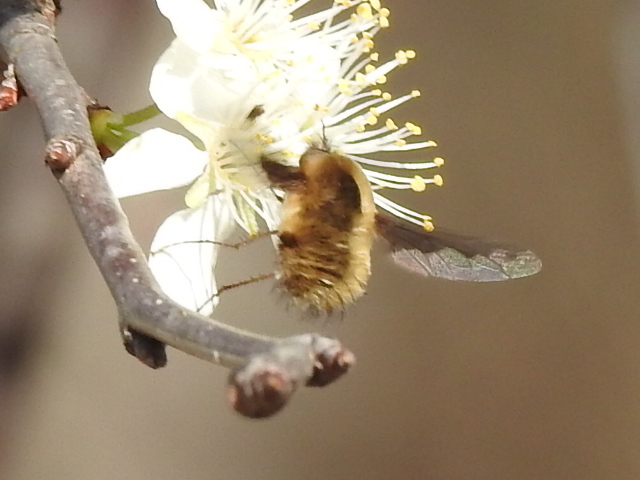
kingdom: Animalia
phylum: Arthropoda
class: Insecta
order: Diptera
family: Bombyliidae
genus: Bombylius
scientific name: Bombylius major
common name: Bee fly
